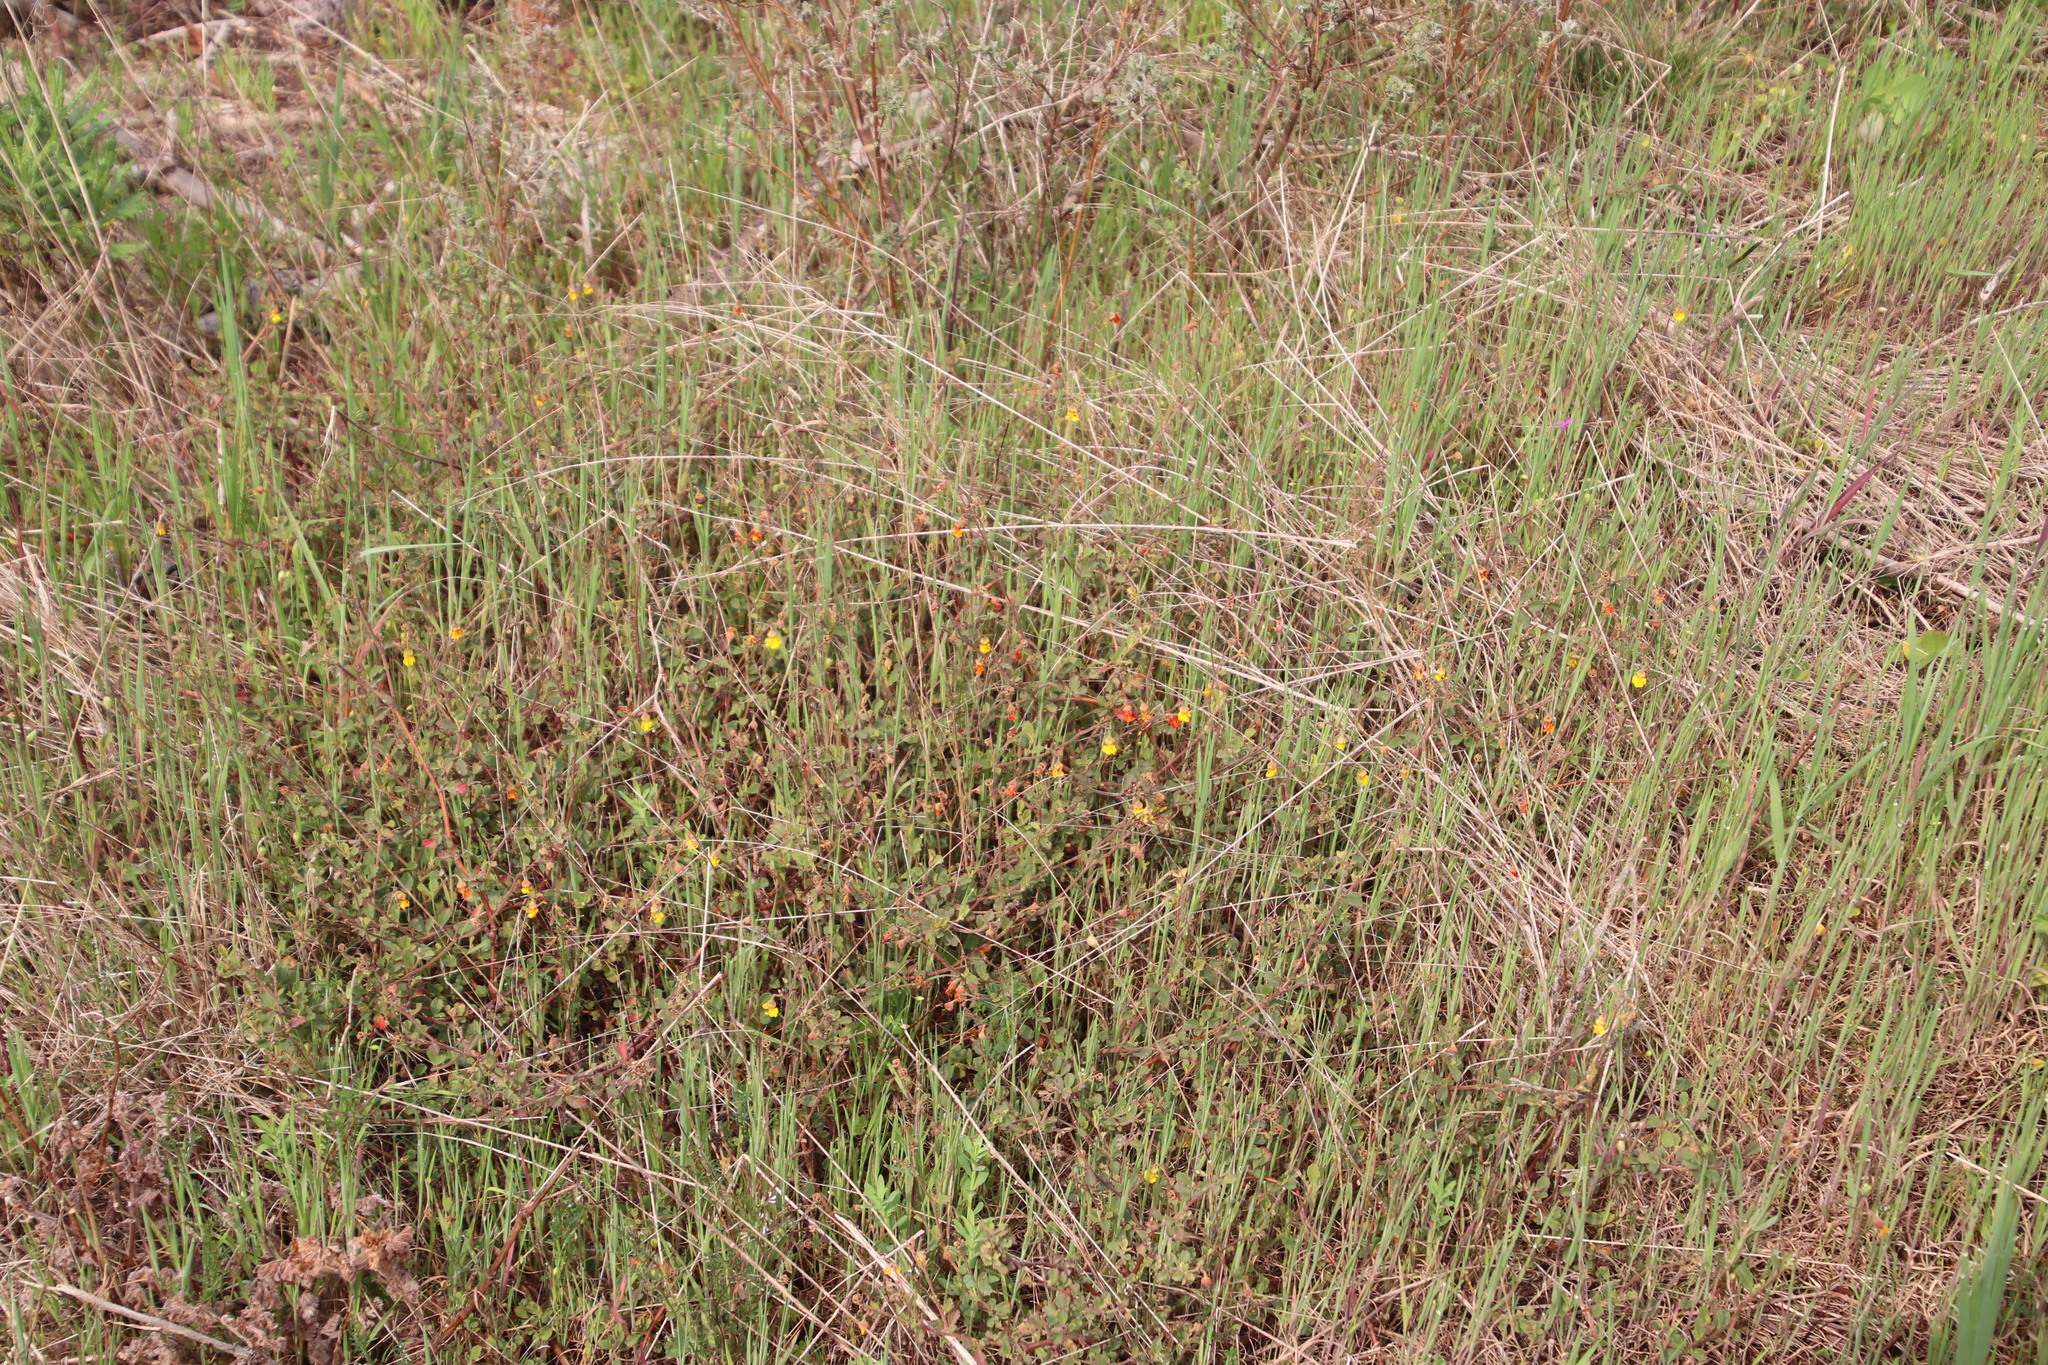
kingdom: Plantae
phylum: Tracheophyta
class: Magnoliopsida
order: Malvales
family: Malvaceae
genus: Hermannia
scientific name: Hermannia multiflora
